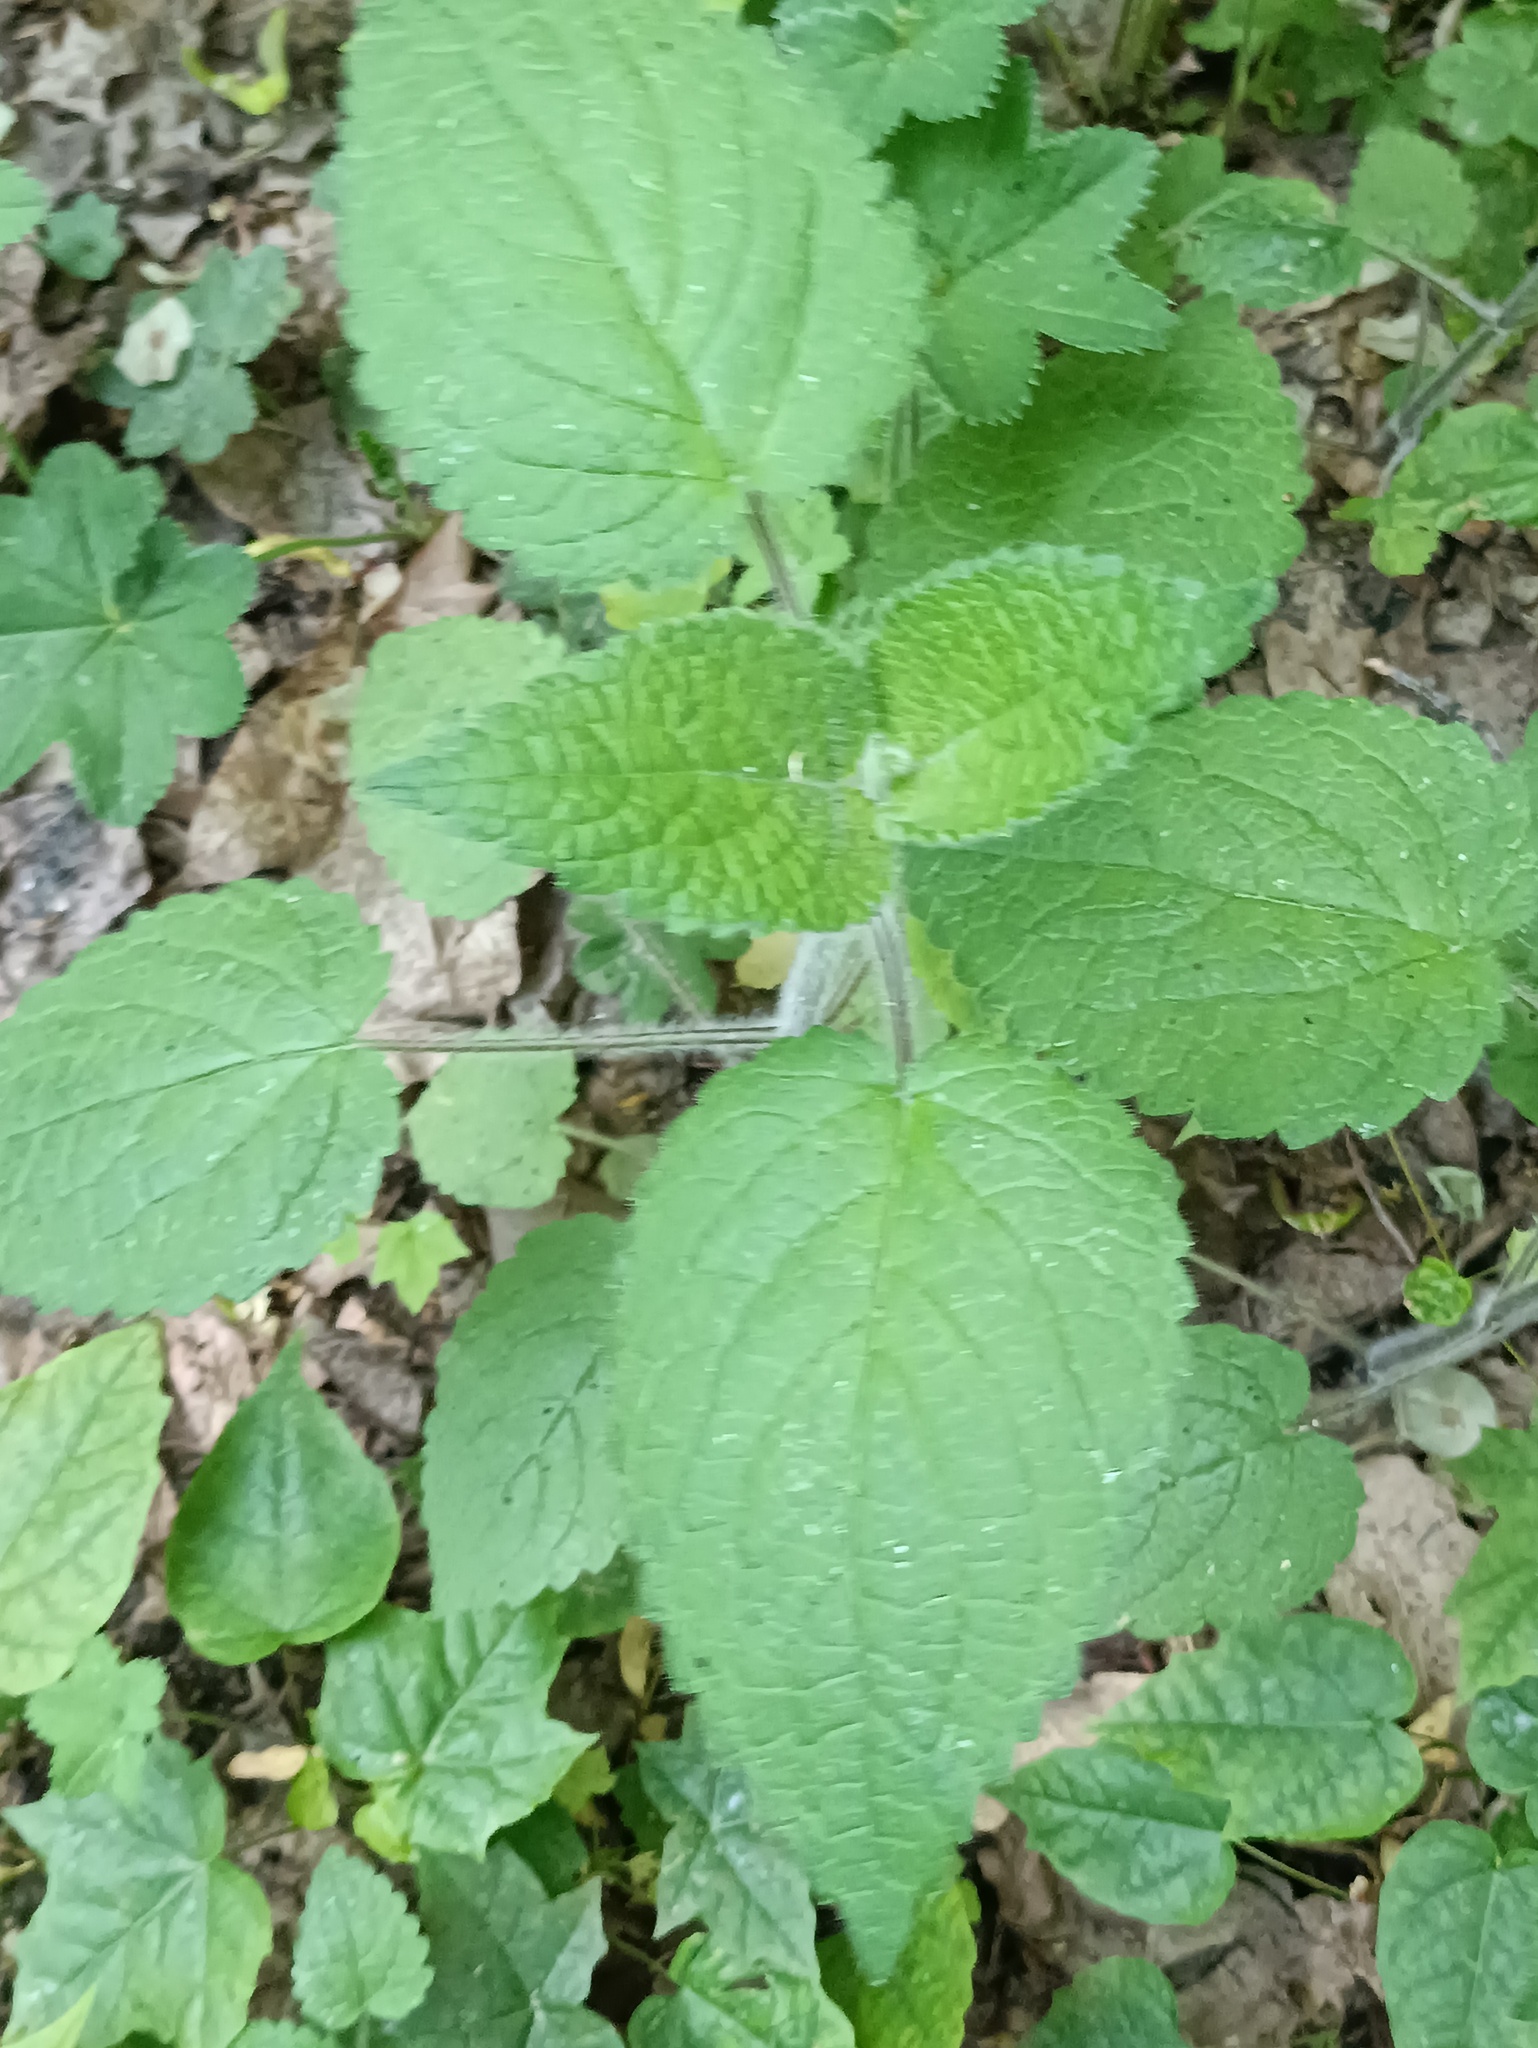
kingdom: Plantae
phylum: Tracheophyta
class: Magnoliopsida
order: Lamiales
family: Lamiaceae
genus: Stachys
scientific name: Stachys sylvatica
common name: Hedge woundwort
